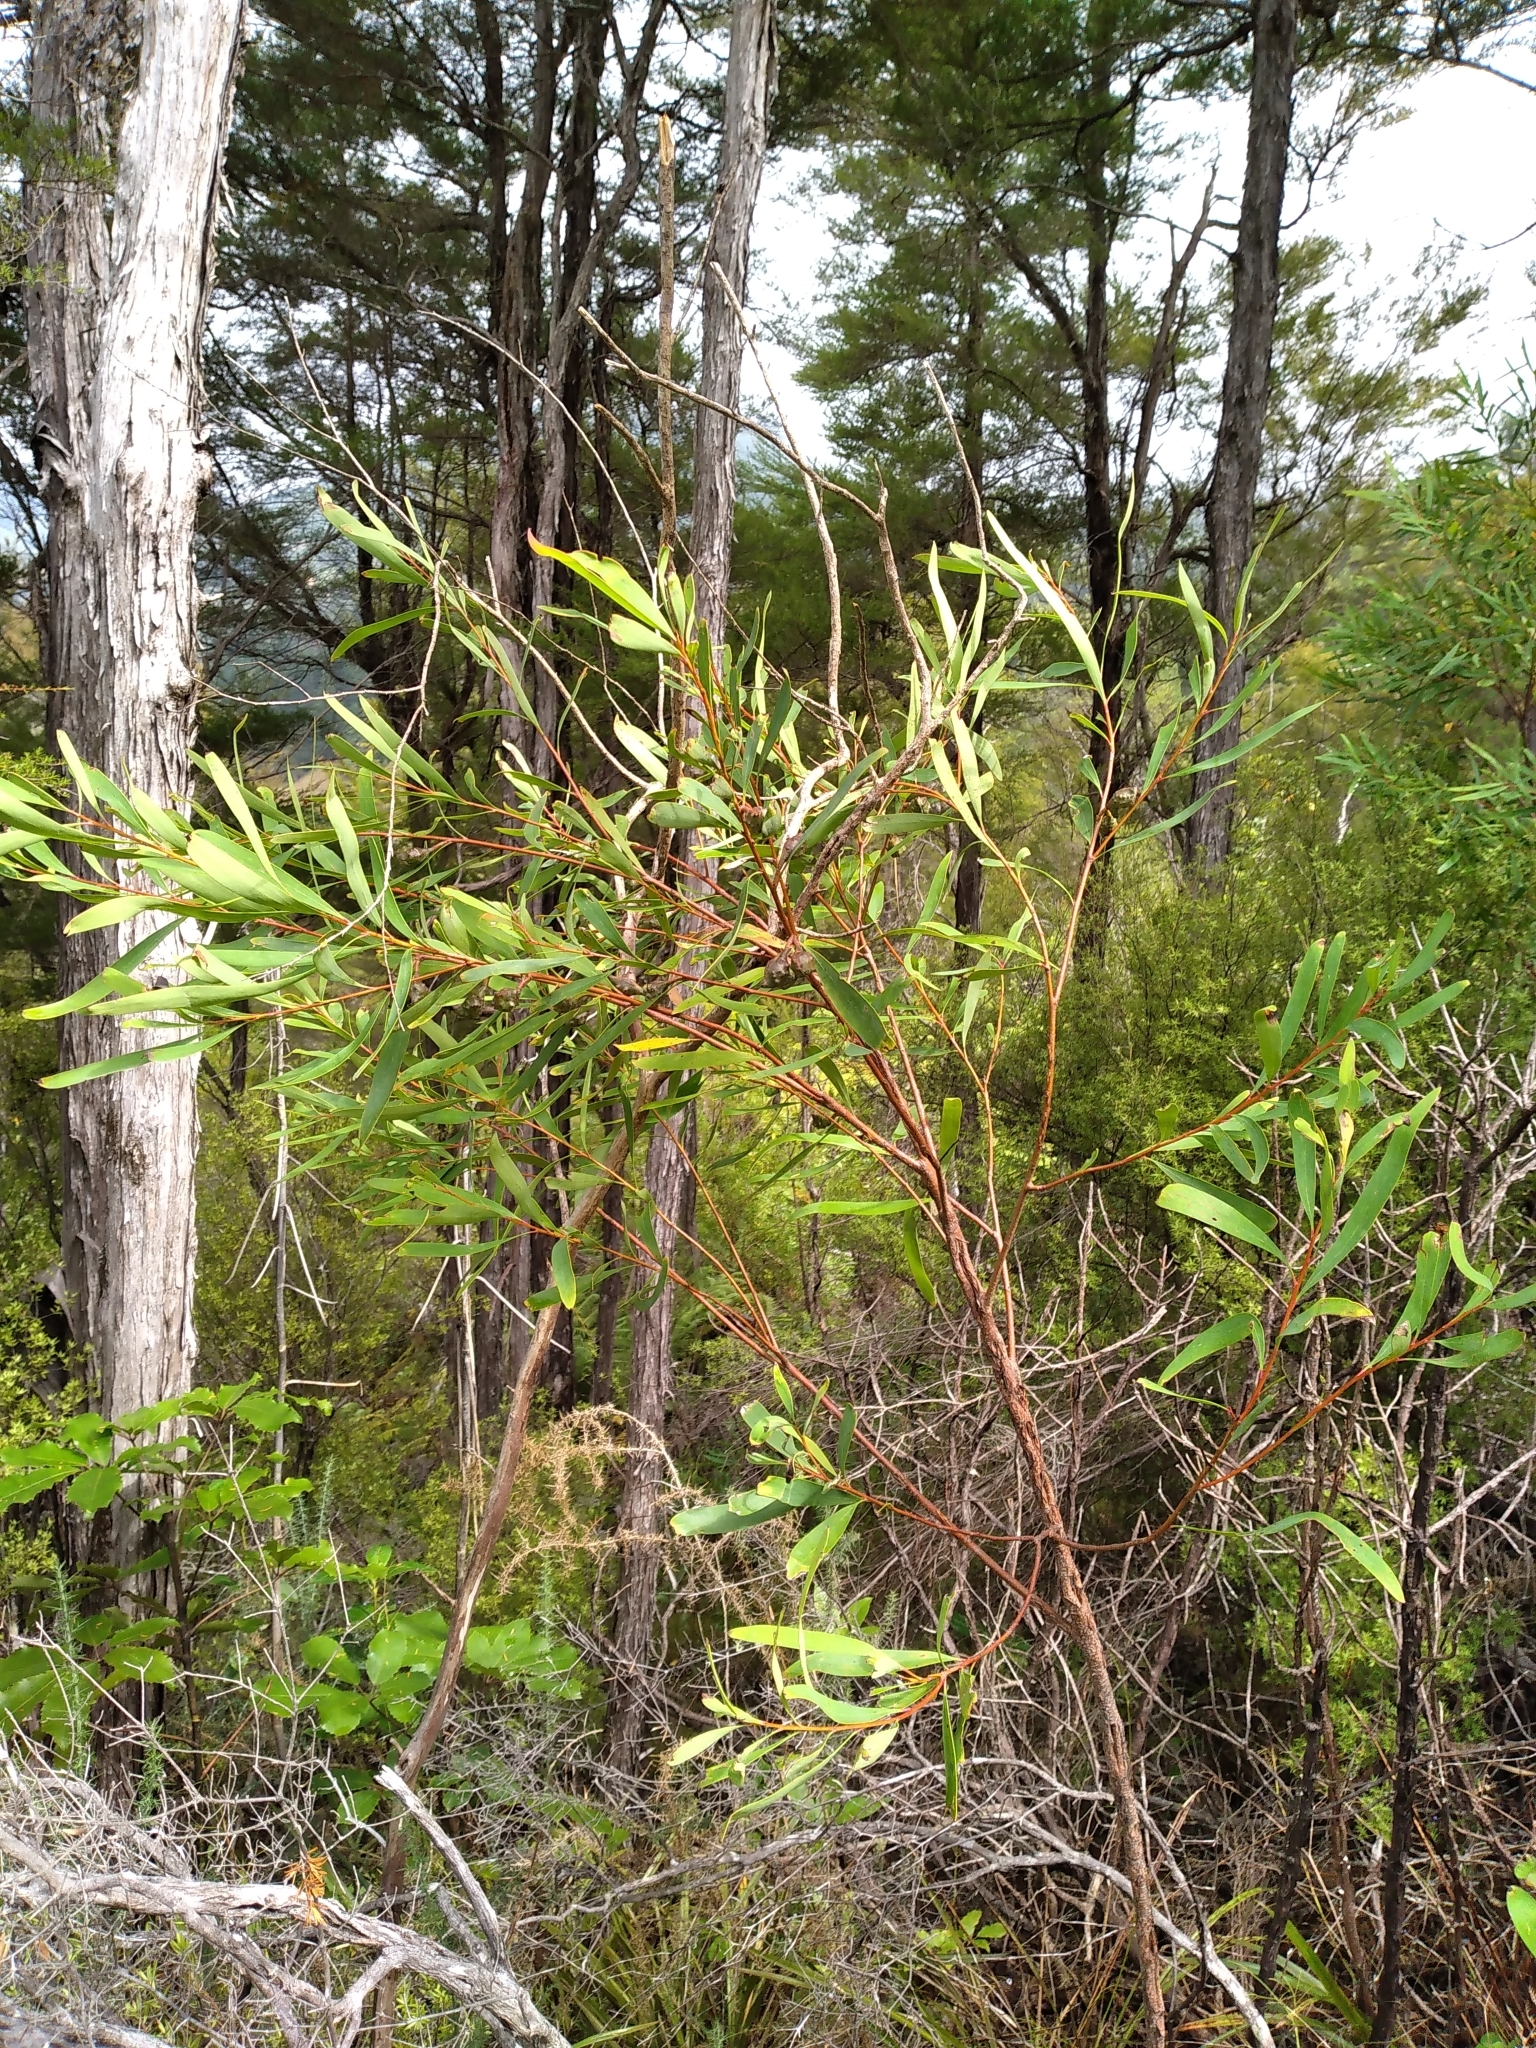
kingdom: Plantae
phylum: Tracheophyta
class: Magnoliopsida
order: Proteales
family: Proteaceae
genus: Hakea
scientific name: Hakea salicifolia
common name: Willow hakea
